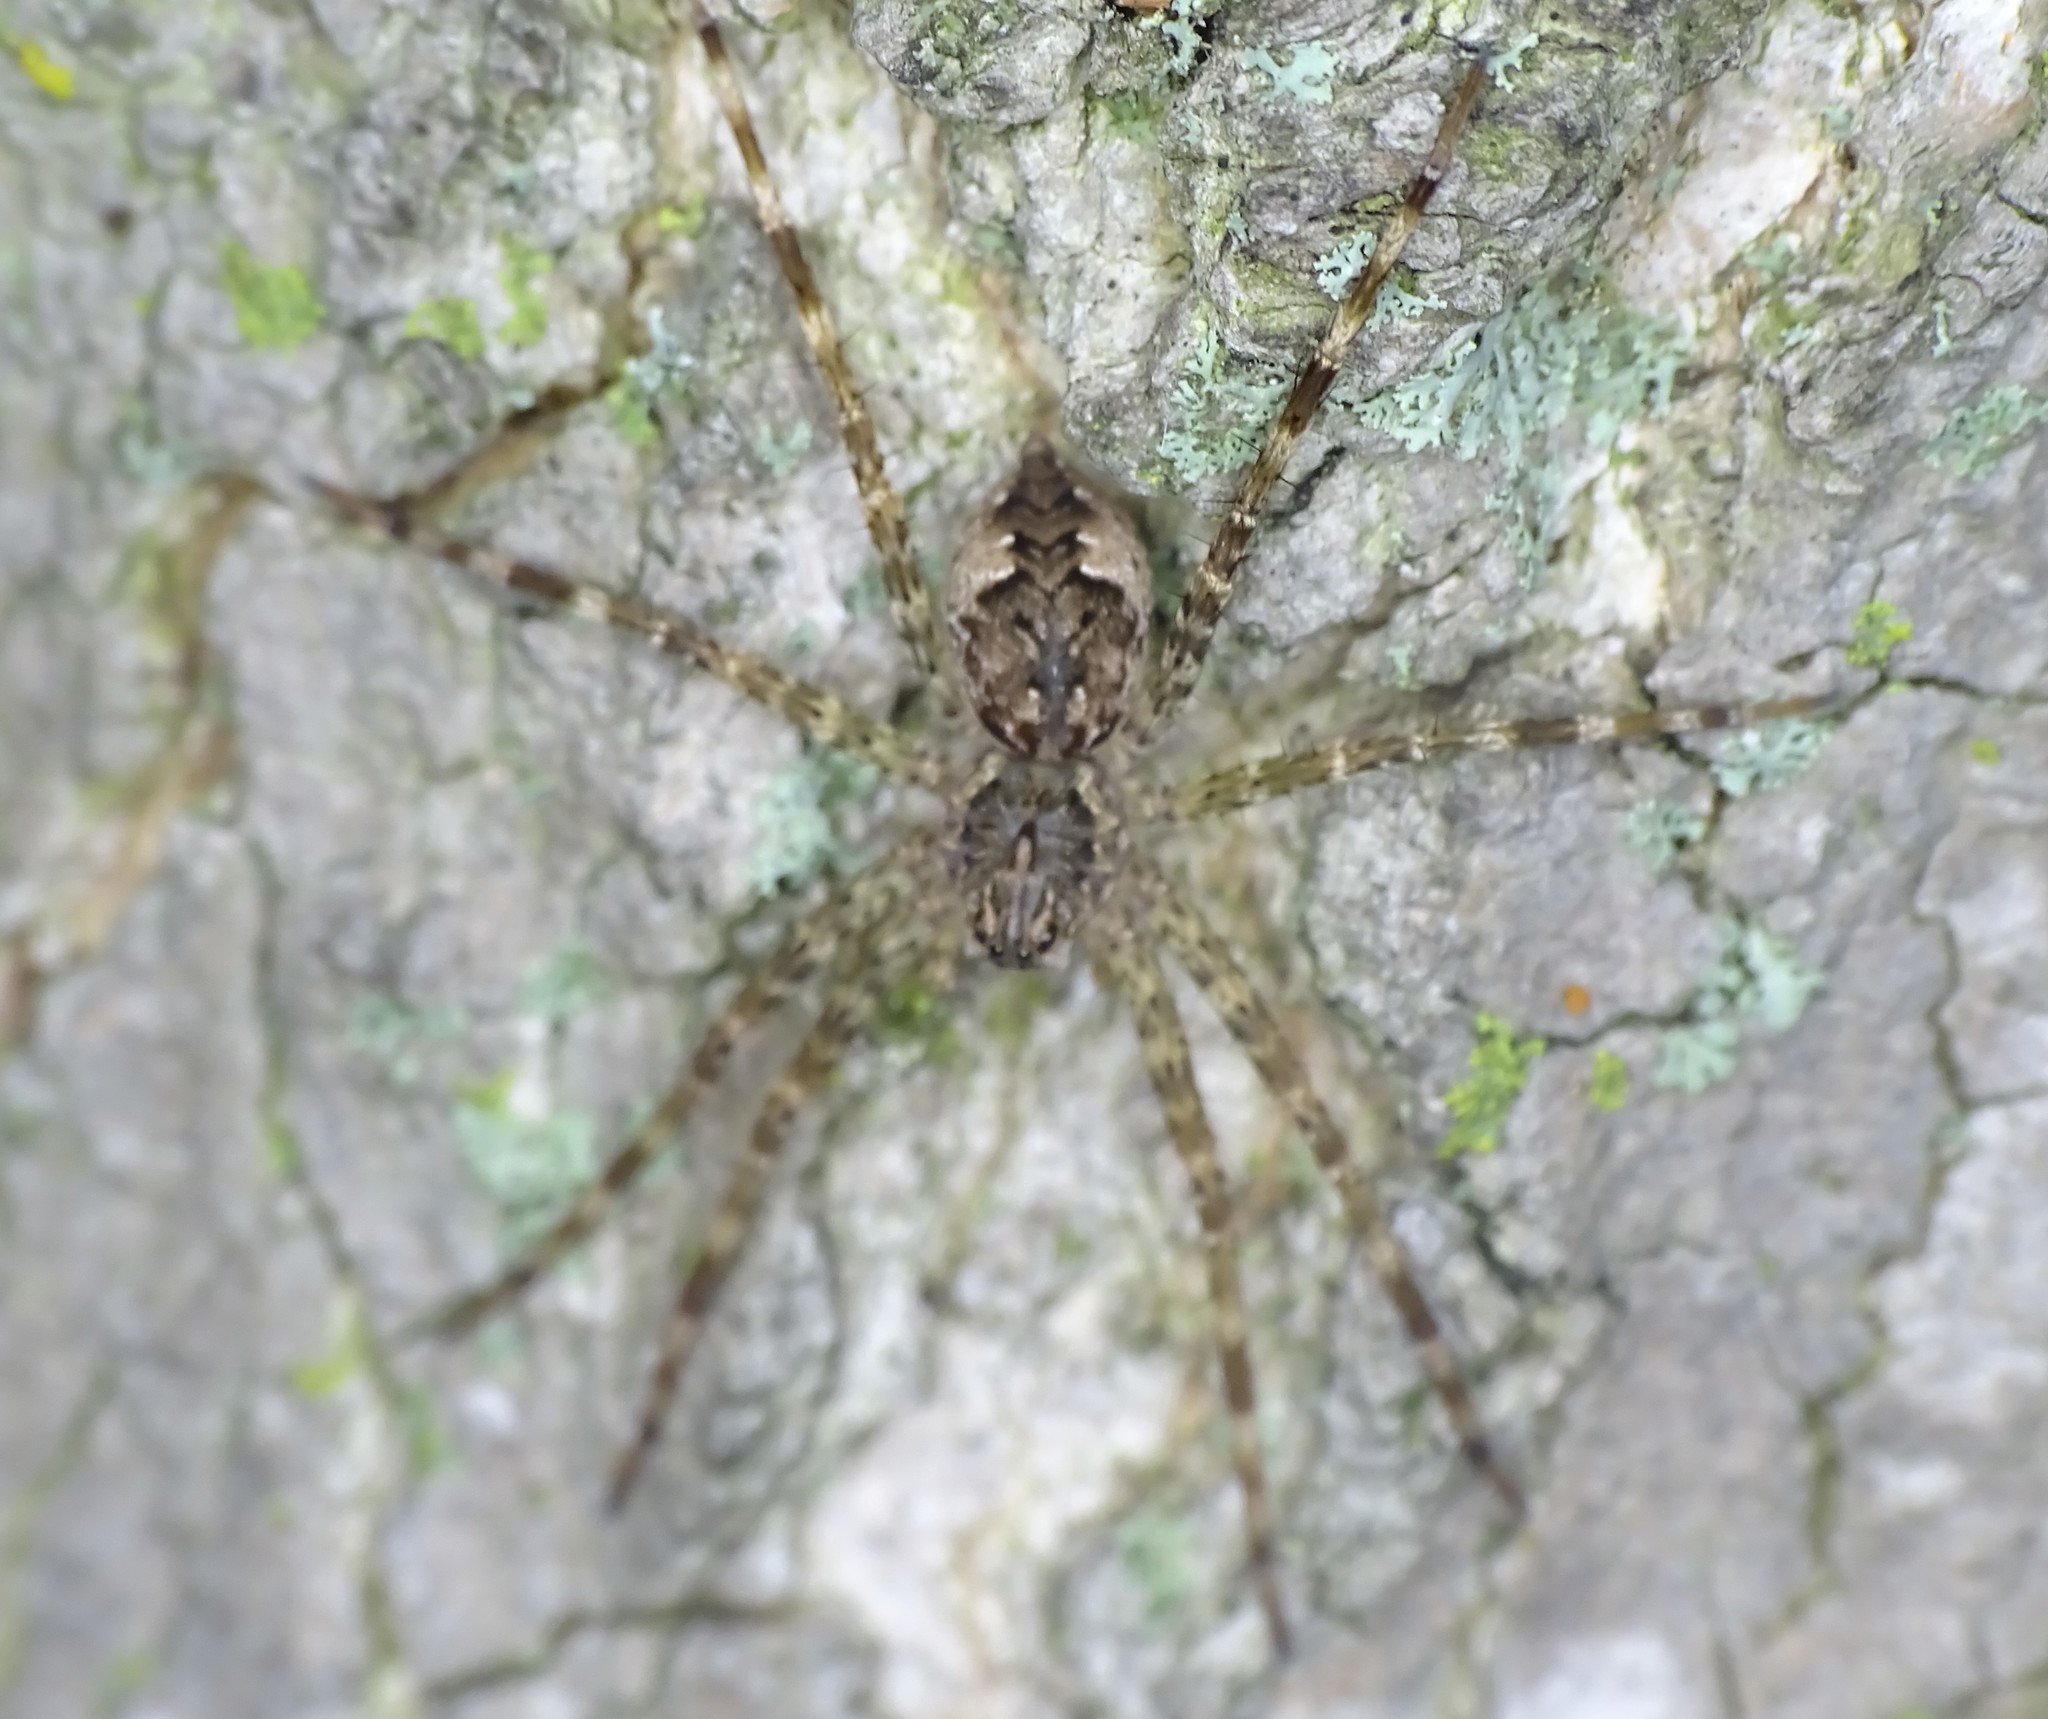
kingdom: Animalia
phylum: Arthropoda
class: Arachnida
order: Araneae
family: Pisauridae
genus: Dolomedes
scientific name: Dolomedes tenebrosus
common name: Dark fishing spider
